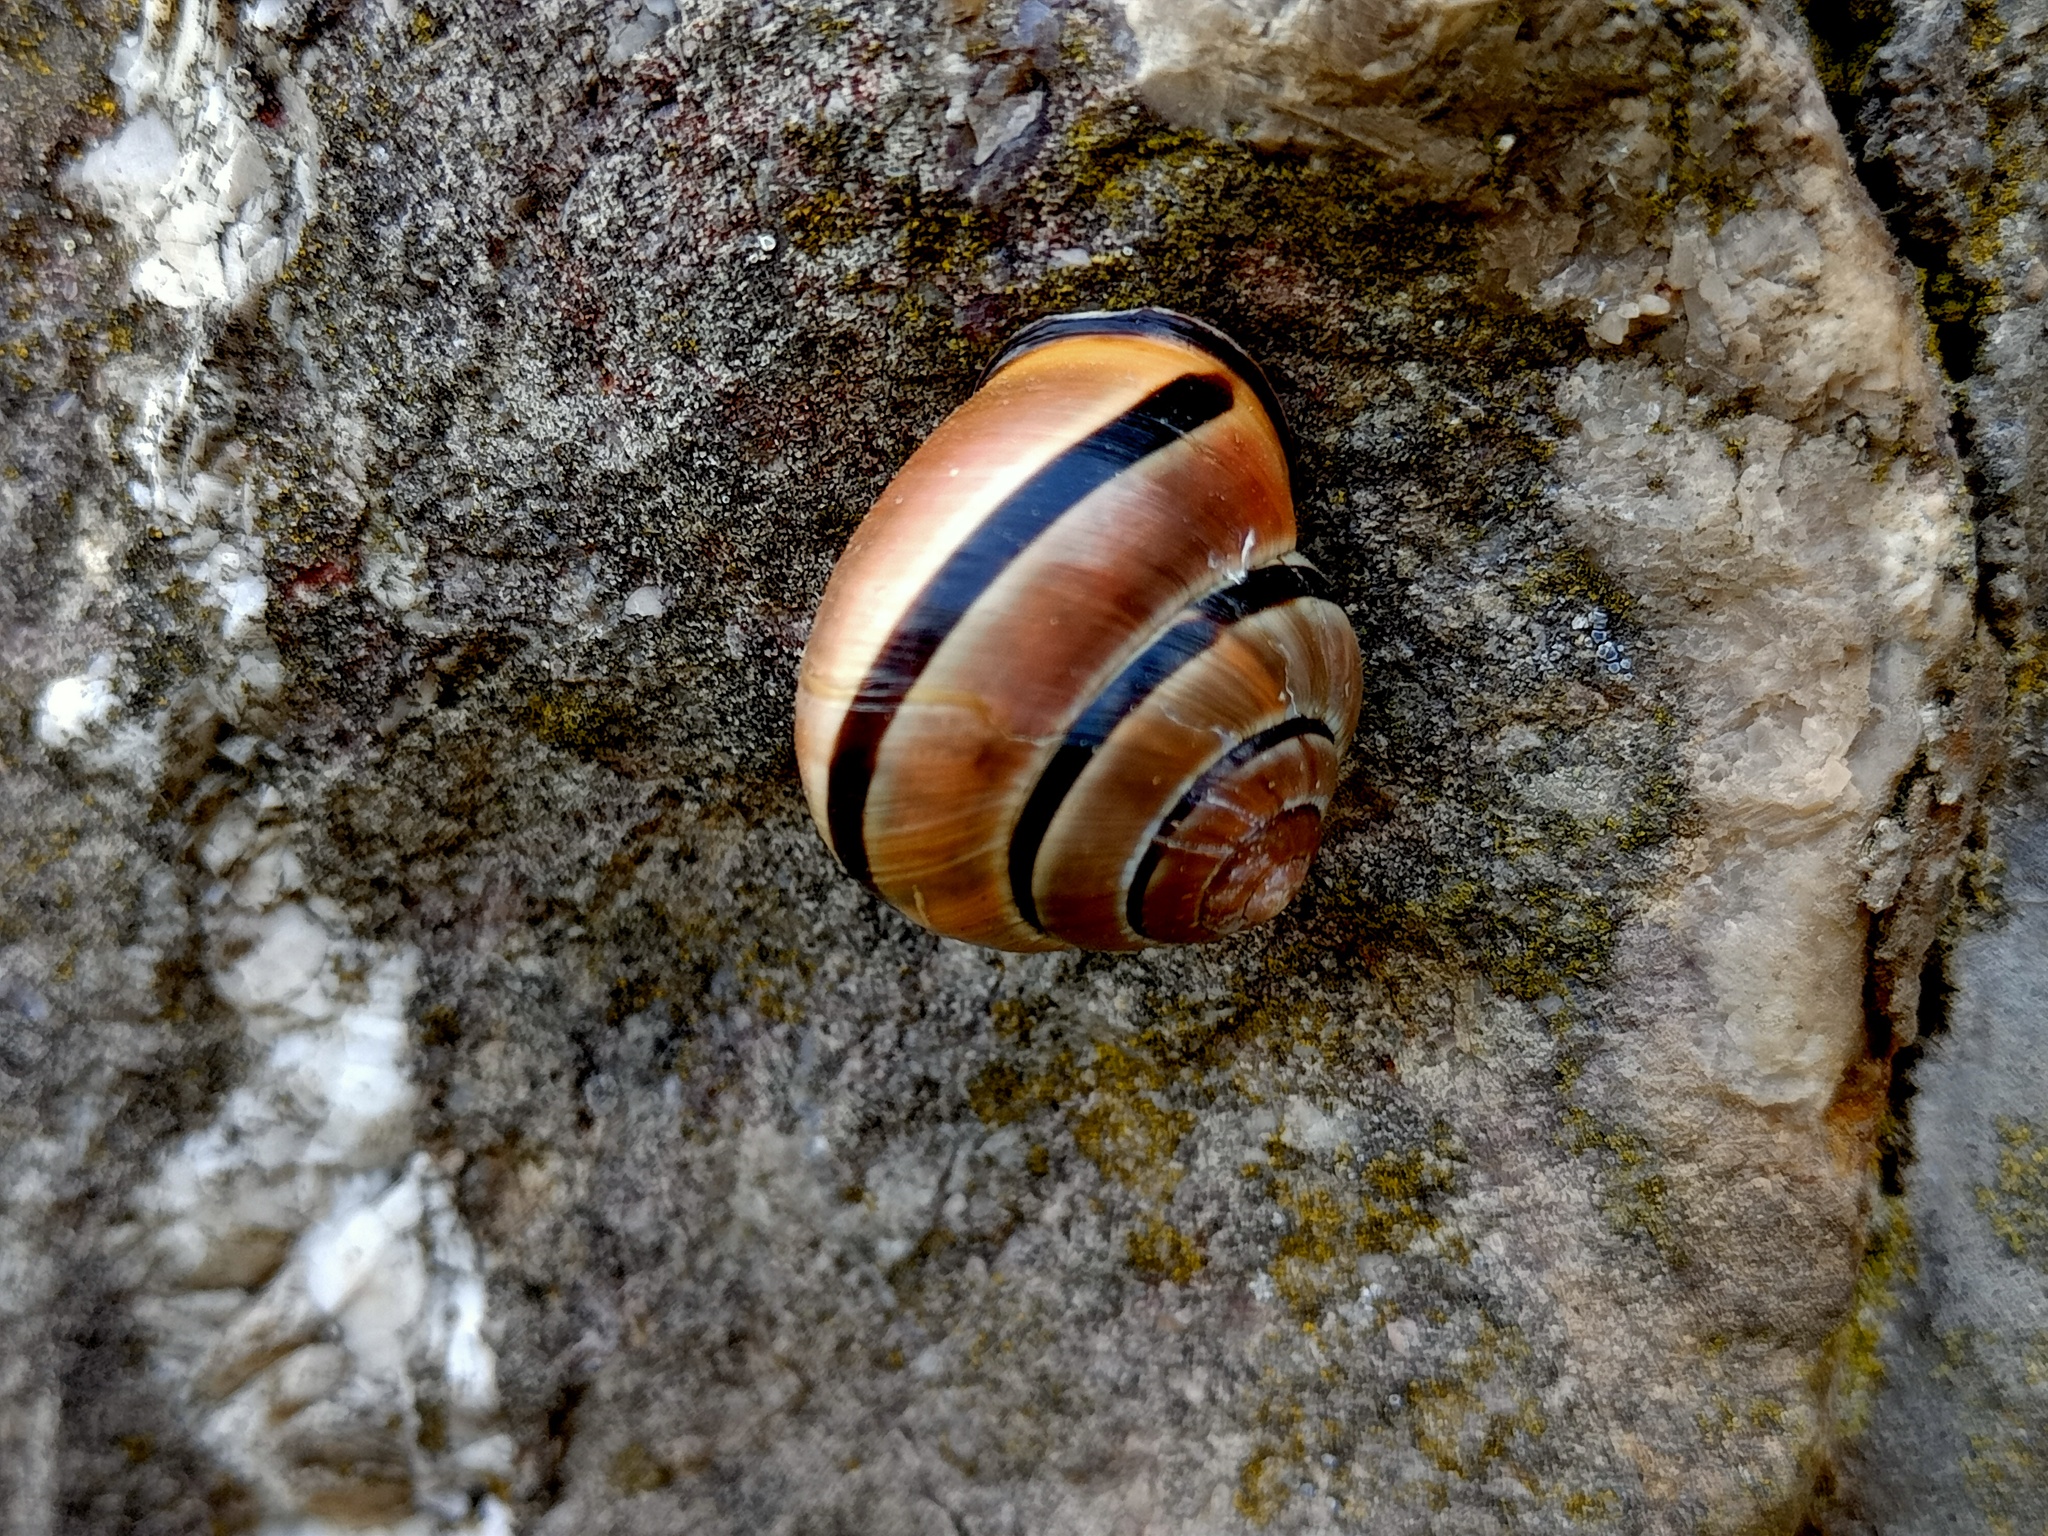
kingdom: Animalia
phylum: Mollusca
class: Gastropoda
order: Stylommatophora
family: Helicidae
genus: Cepaea
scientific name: Cepaea nemoralis
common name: Grovesnail
